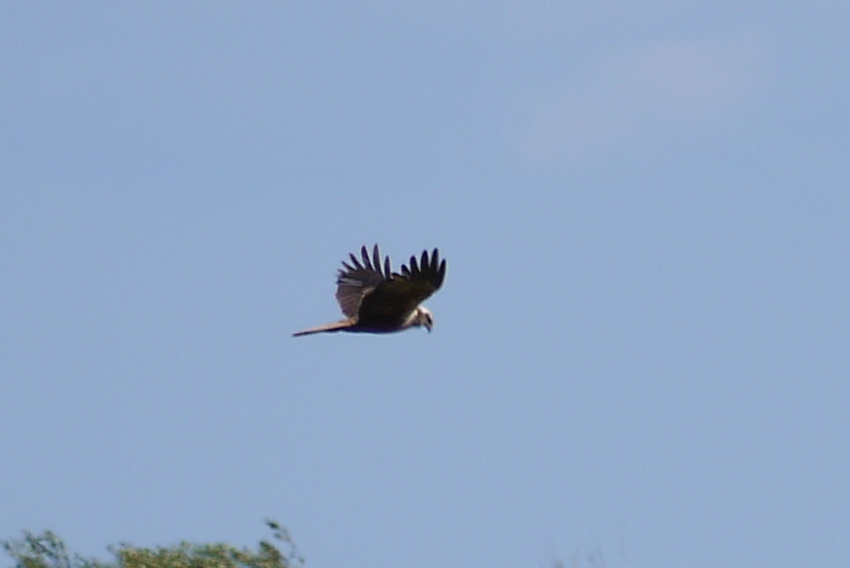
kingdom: Animalia
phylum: Chordata
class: Aves
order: Accipitriformes
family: Accipitridae
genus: Circus
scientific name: Circus aeruginosus
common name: Western marsh harrier
